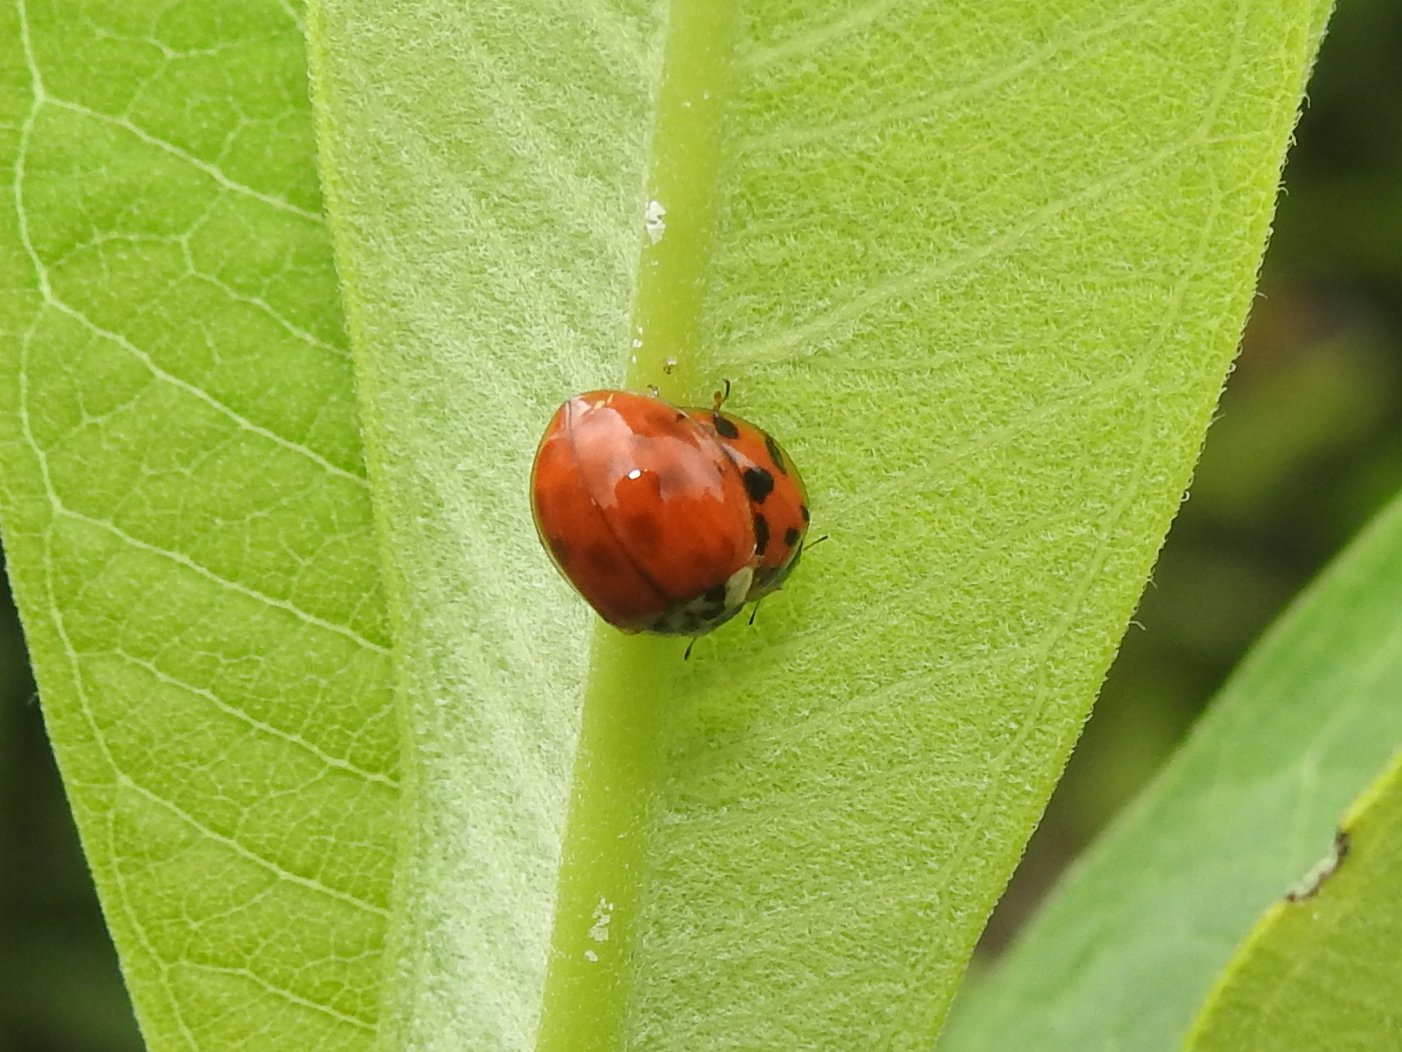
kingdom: Animalia
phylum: Arthropoda
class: Insecta
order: Coleoptera
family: Coccinellidae
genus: Harmonia
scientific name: Harmonia axyridis
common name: Harlequin ladybird
